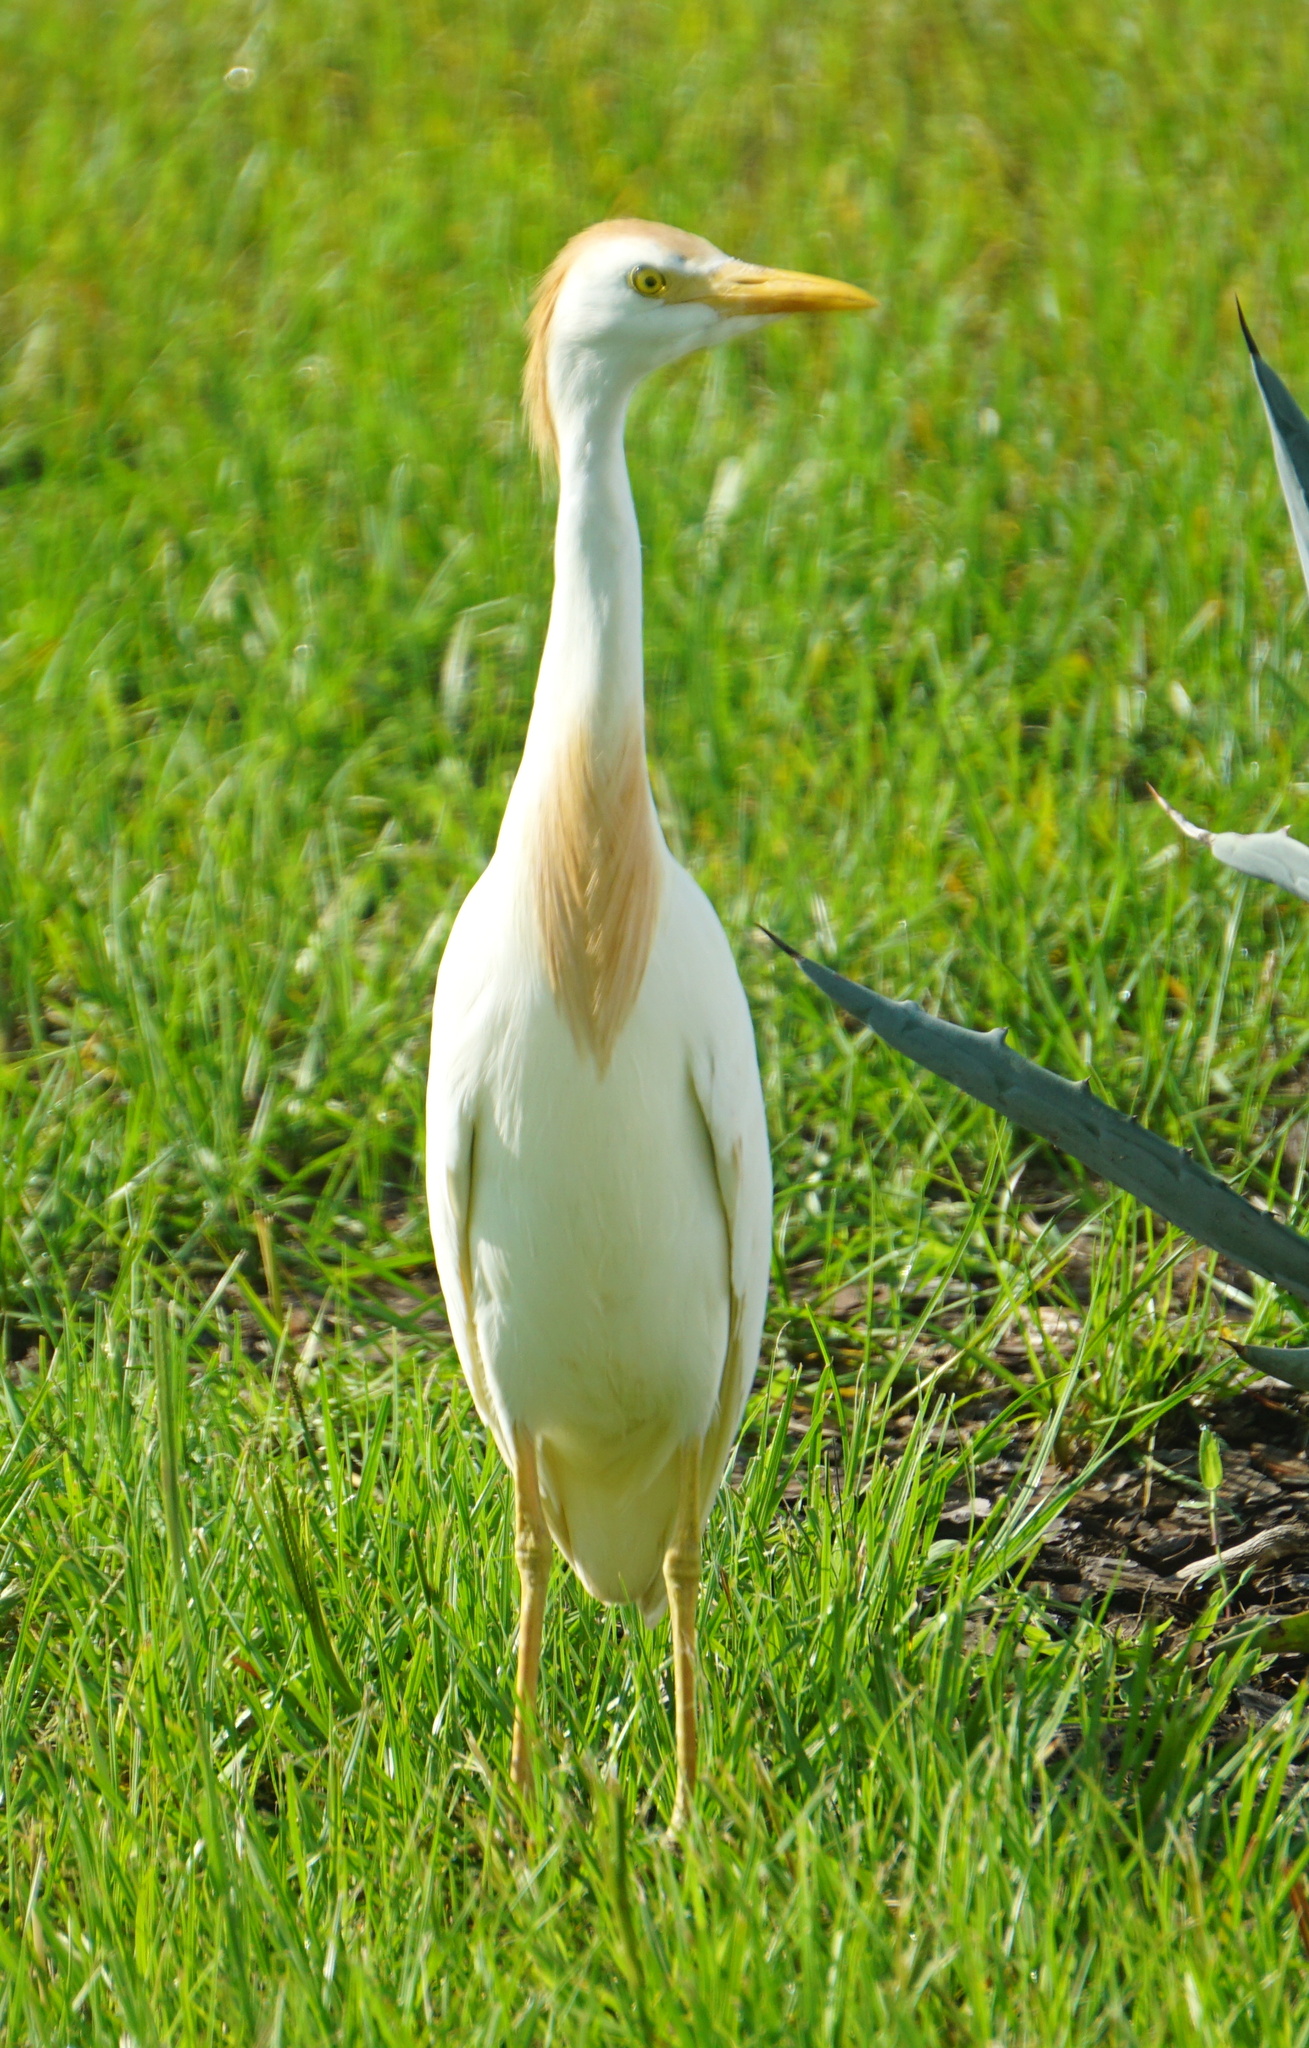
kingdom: Animalia
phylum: Chordata
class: Aves
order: Pelecaniformes
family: Ardeidae
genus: Bubulcus
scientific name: Bubulcus ibis
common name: Cattle egret
